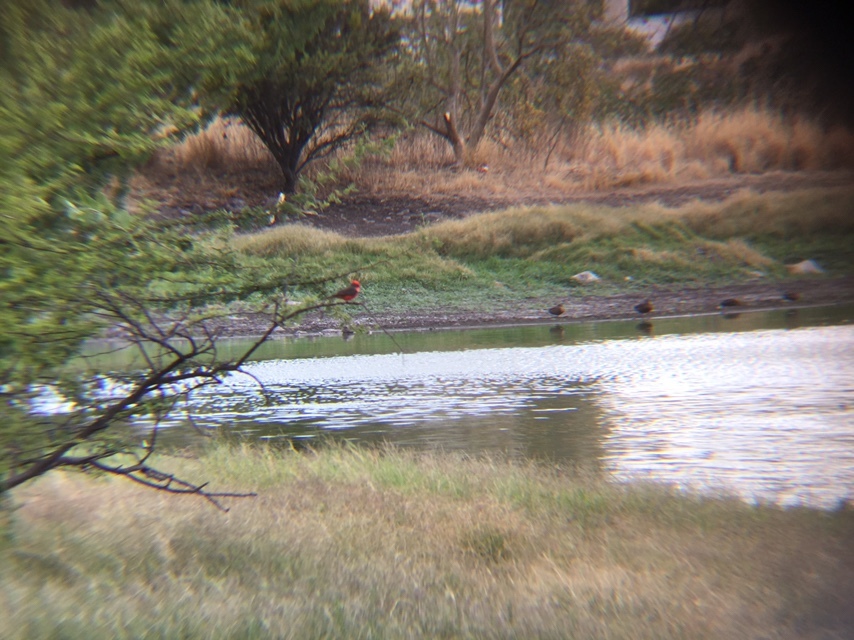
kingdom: Animalia
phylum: Chordata
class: Aves
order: Passeriformes
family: Tyrannidae
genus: Pyrocephalus
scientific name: Pyrocephalus rubinus
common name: Vermilion flycatcher
